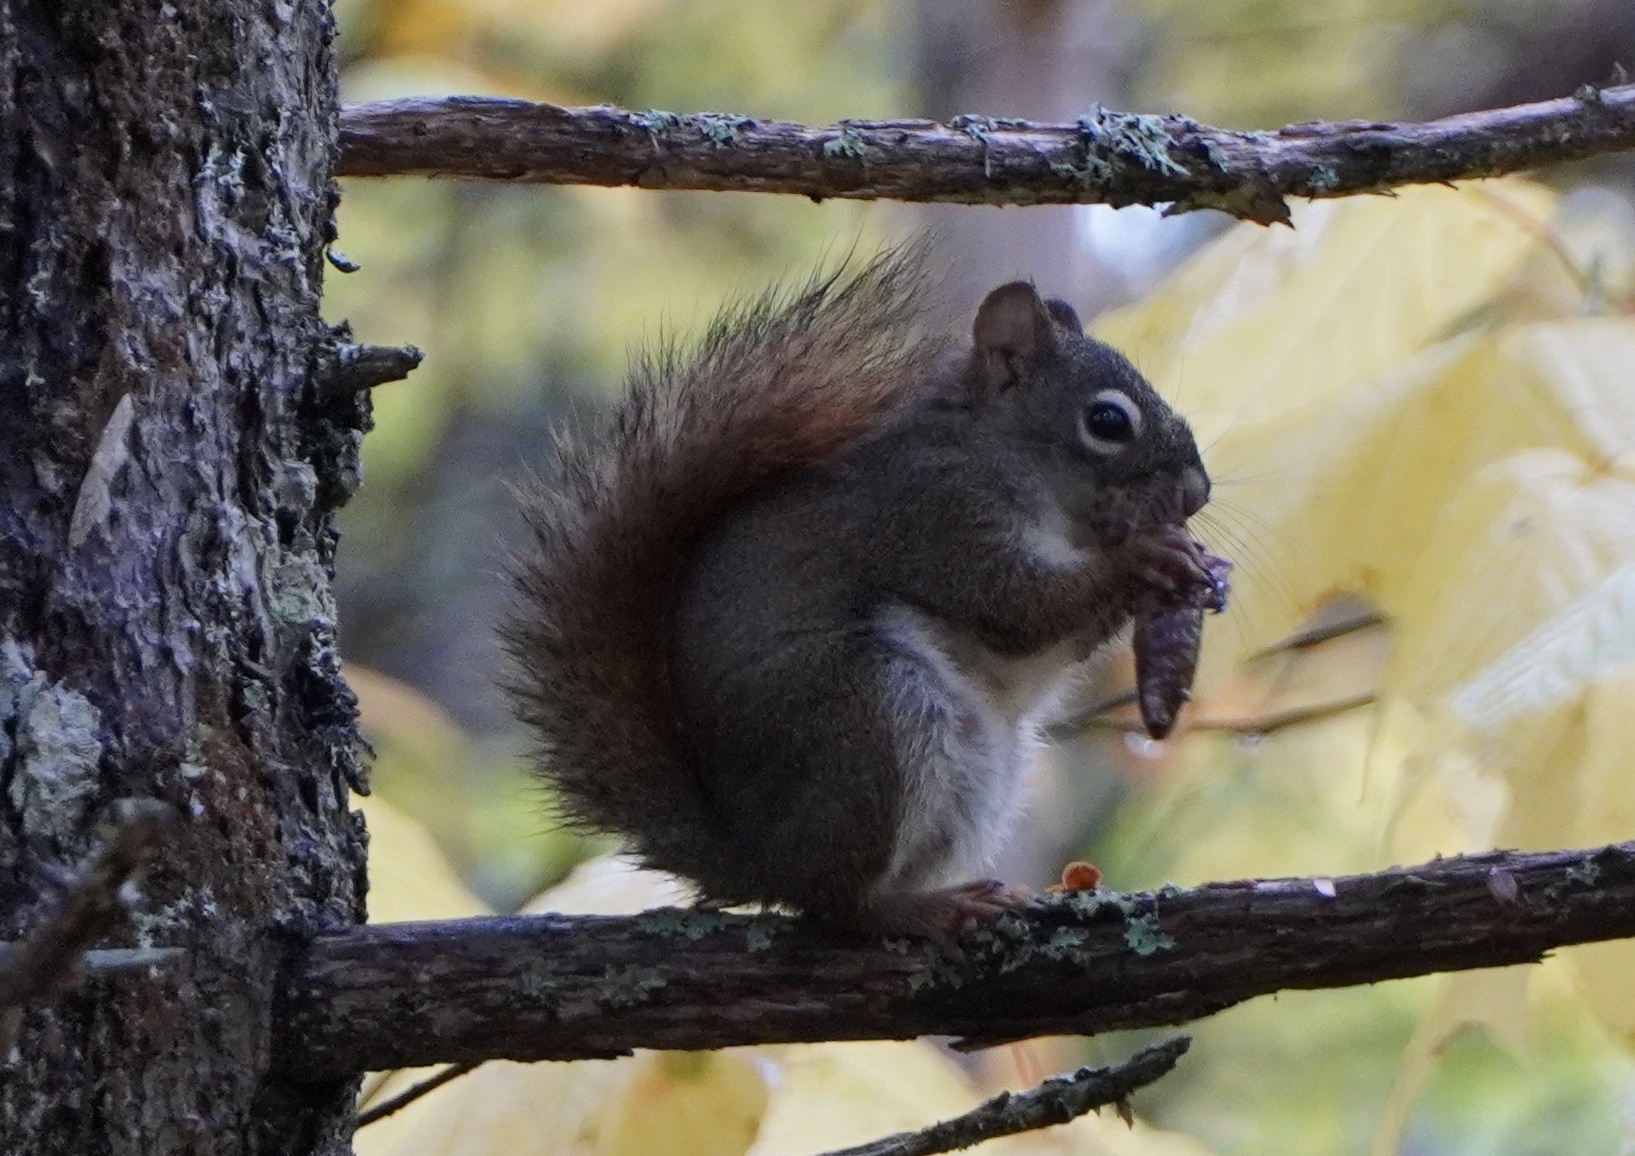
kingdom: Animalia
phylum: Chordata
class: Mammalia
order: Rodentia
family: Sciuridae
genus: Tamiasciurus
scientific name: Tamiasciurus hudsonicus
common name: Red squirrel
